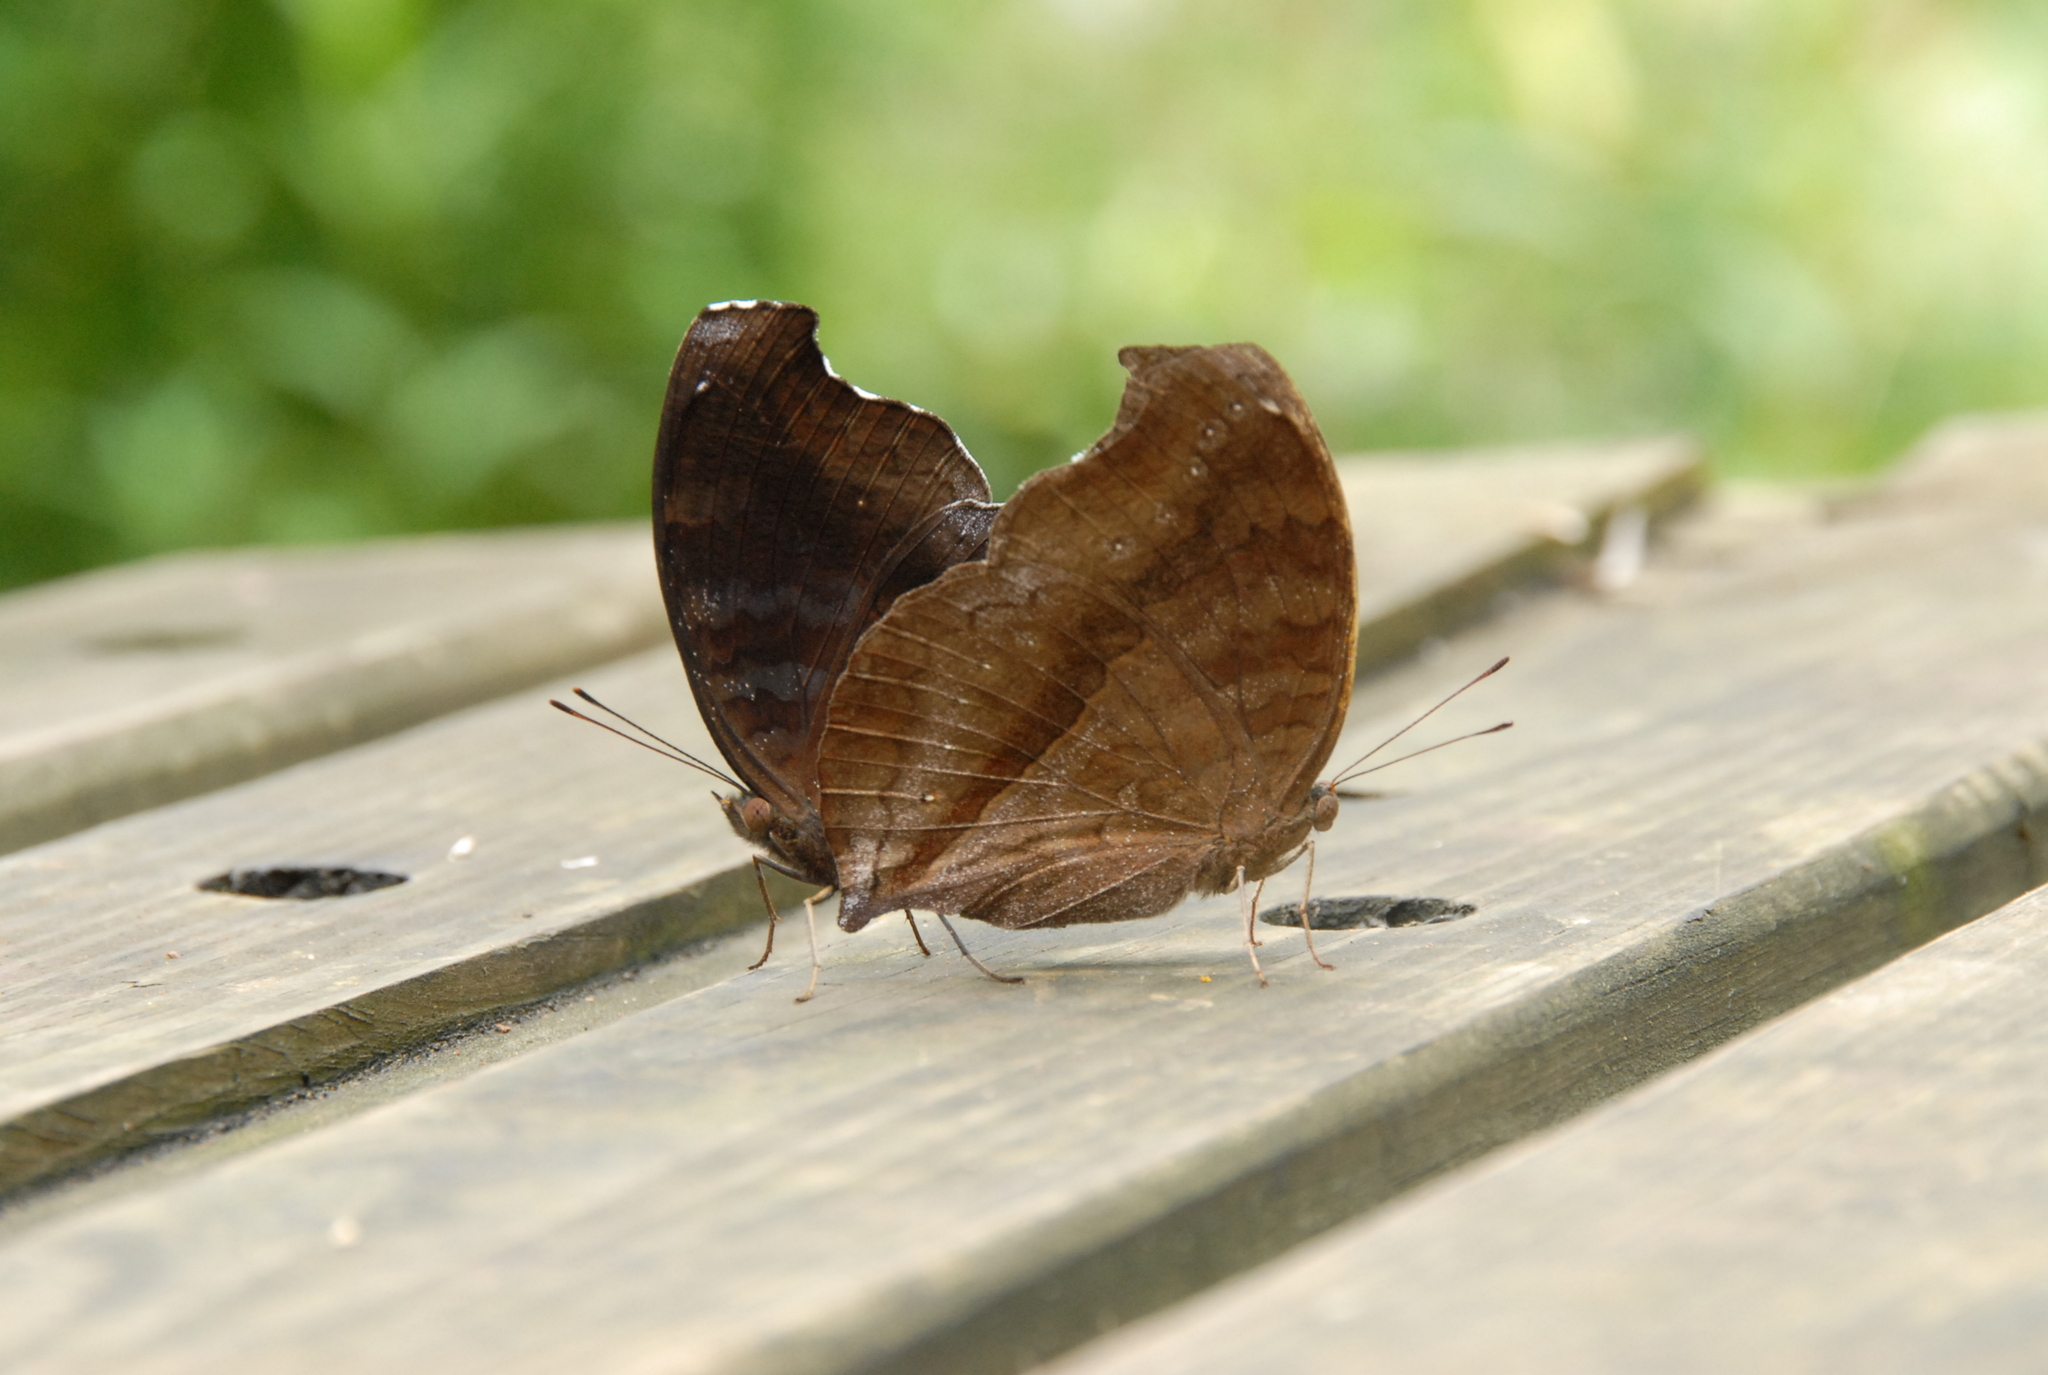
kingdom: Animalia
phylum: Arthropoda
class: Insecta
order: Lepidoptera
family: Nymphalidae
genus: Junonia
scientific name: Junonia iphita
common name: Chocolate pansy
